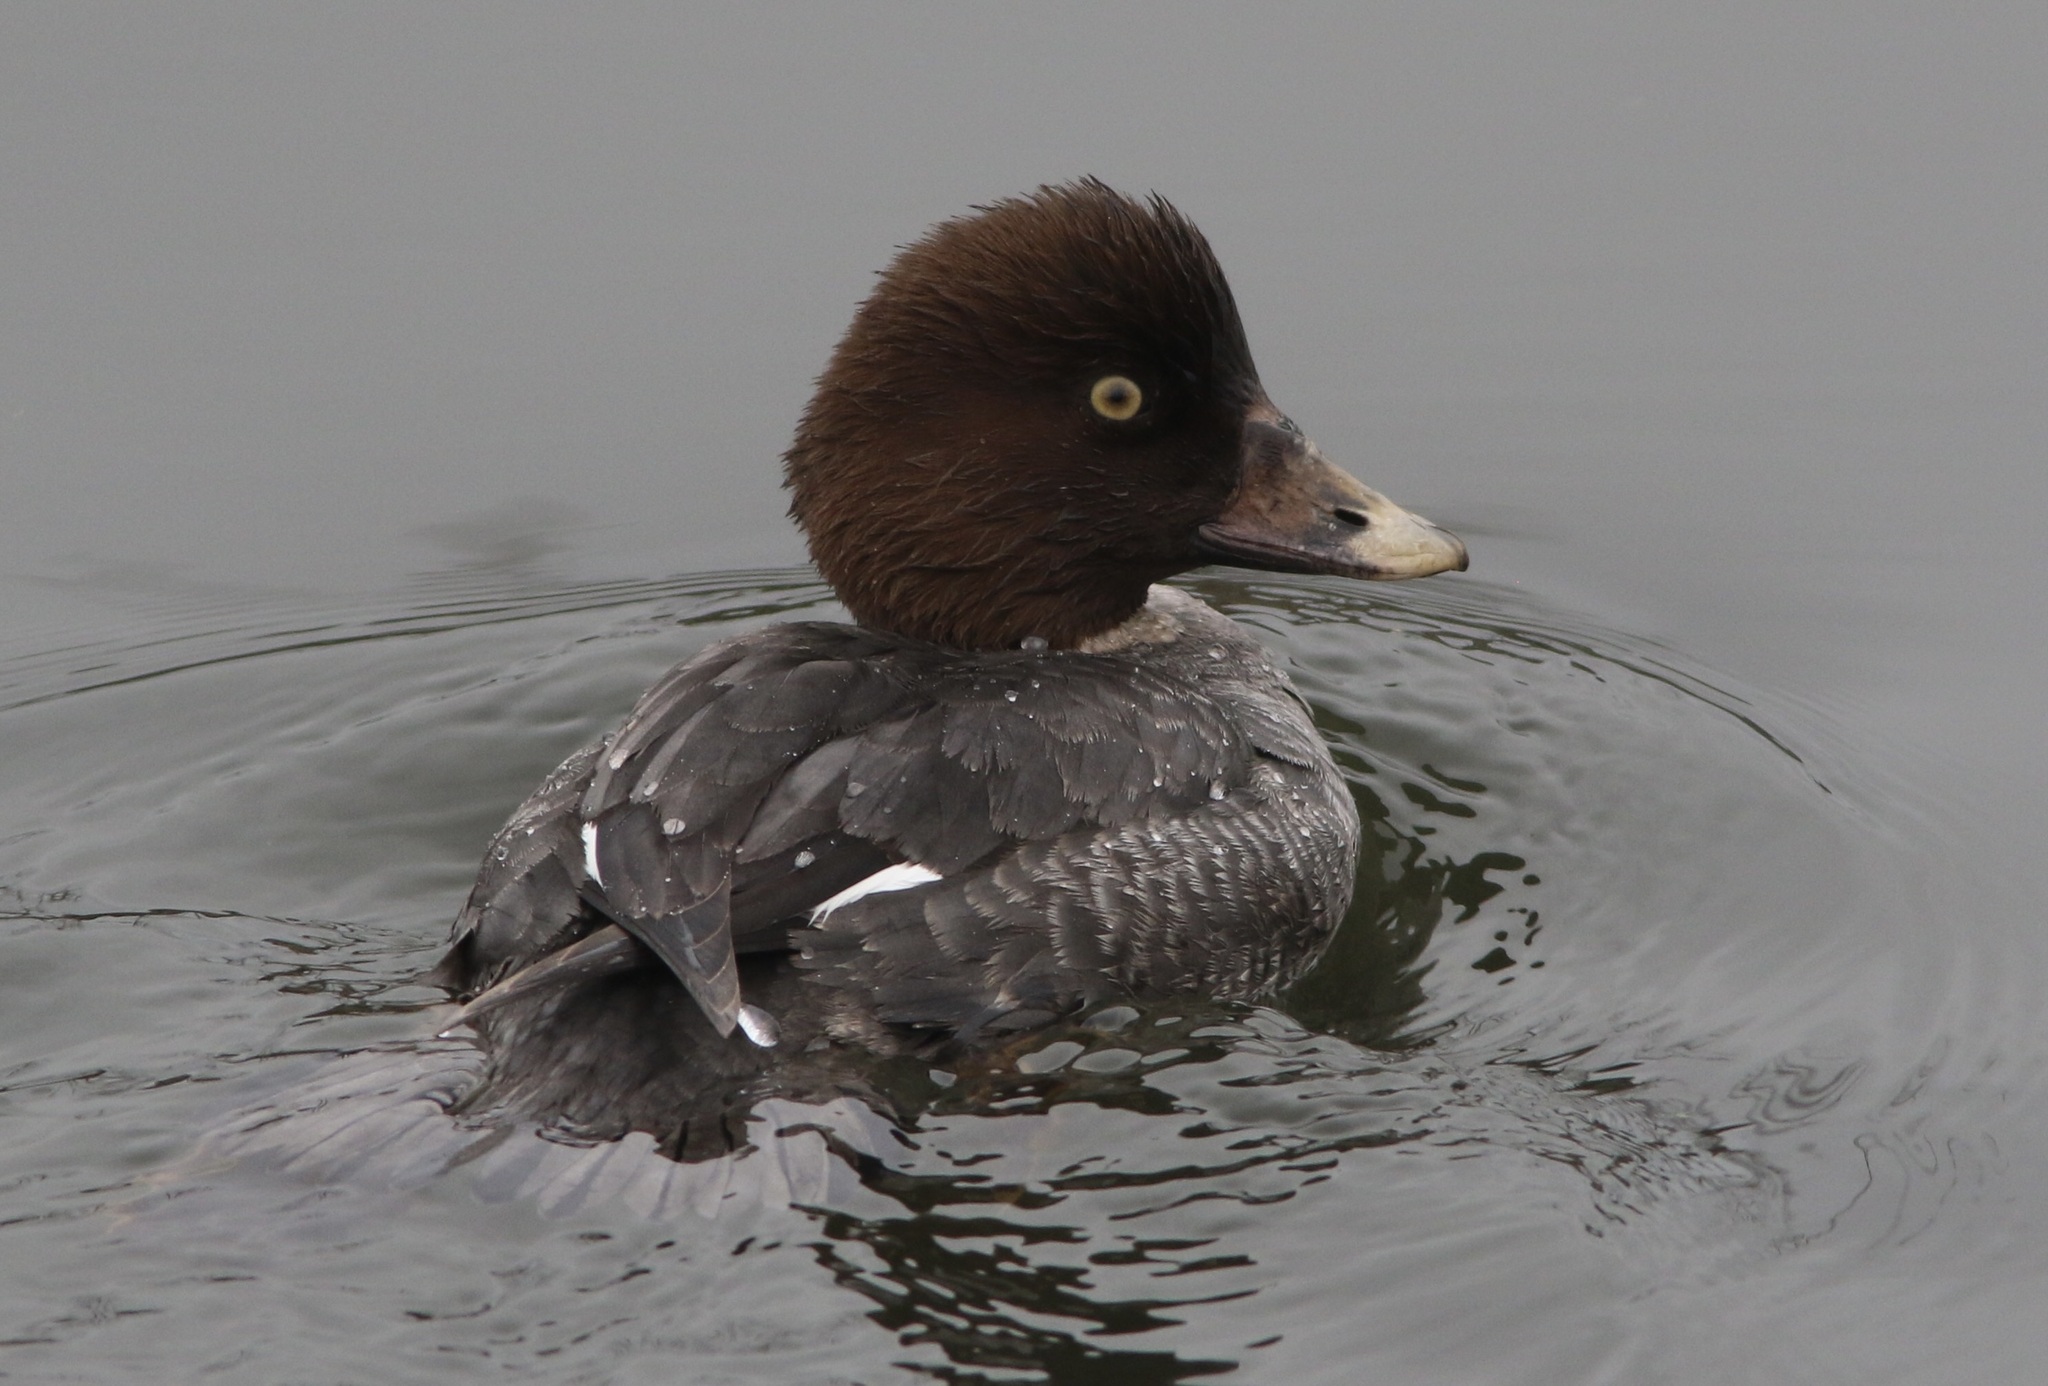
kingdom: Animalia
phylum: Chordata
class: Aves
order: Anseriformes
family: Anatidae
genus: Bucephala
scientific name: Bucephala clangula
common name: Common goldeneye
